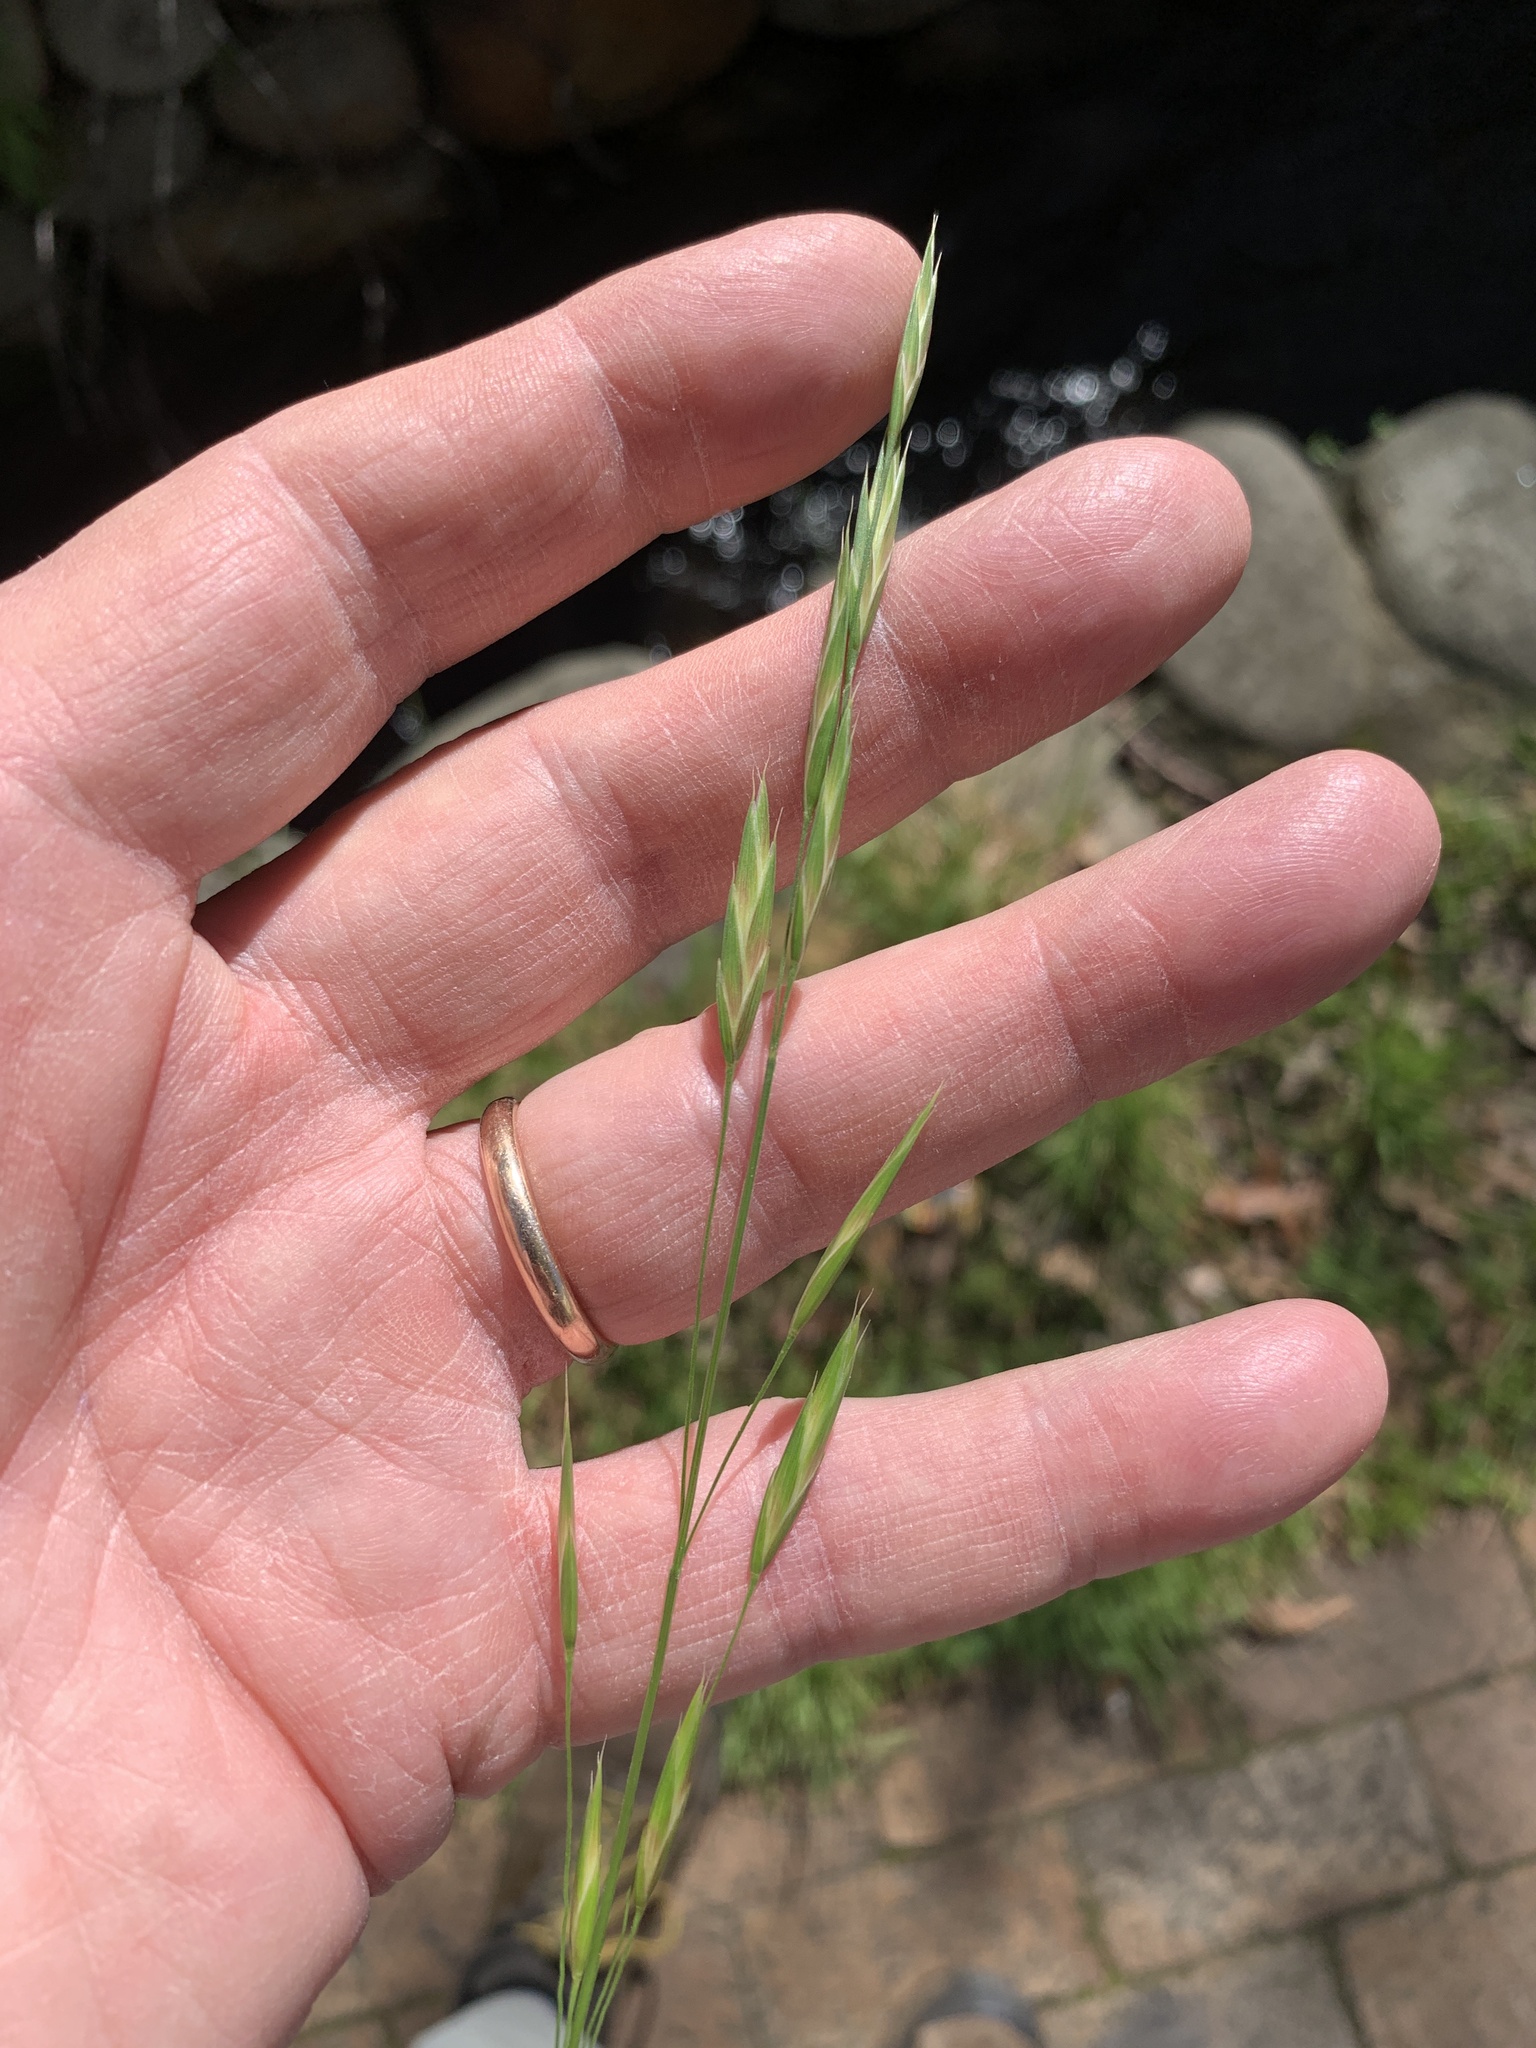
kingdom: Plantae
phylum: Tracheophyta
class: Liliopsida
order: Poales
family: Poaceae
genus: Bromus
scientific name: Bromus catharticus
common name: Rescuegrass
